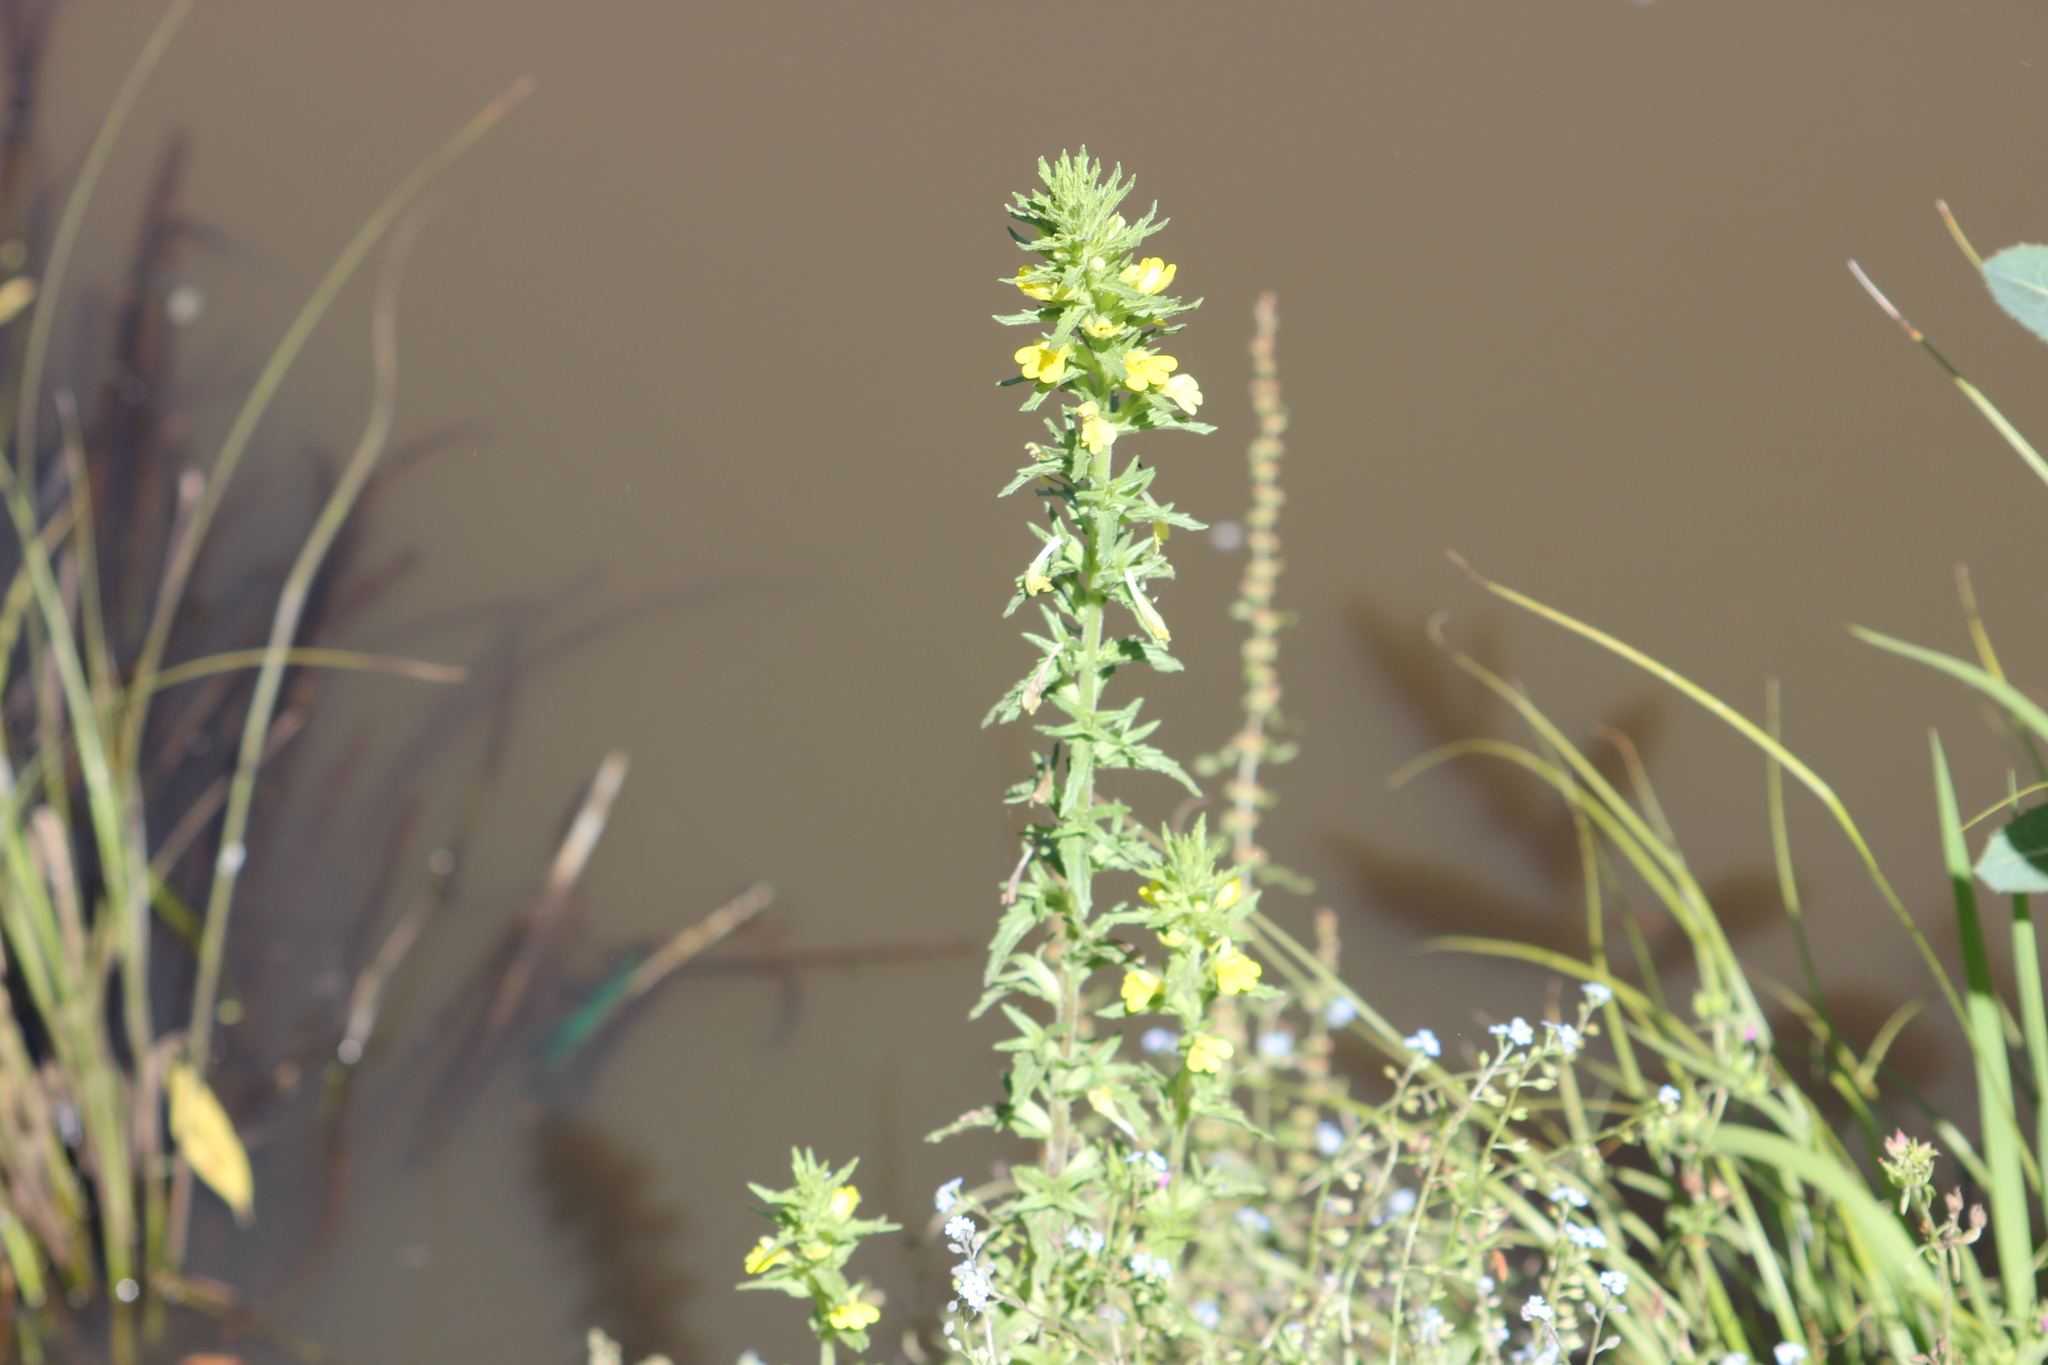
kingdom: Plantae
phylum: Tracheophyta
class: Magnoliopsida
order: Lamiales
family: Orobanchaceae
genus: Bellardia
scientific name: Bellardia viscosa
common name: Sticky parentucellia
